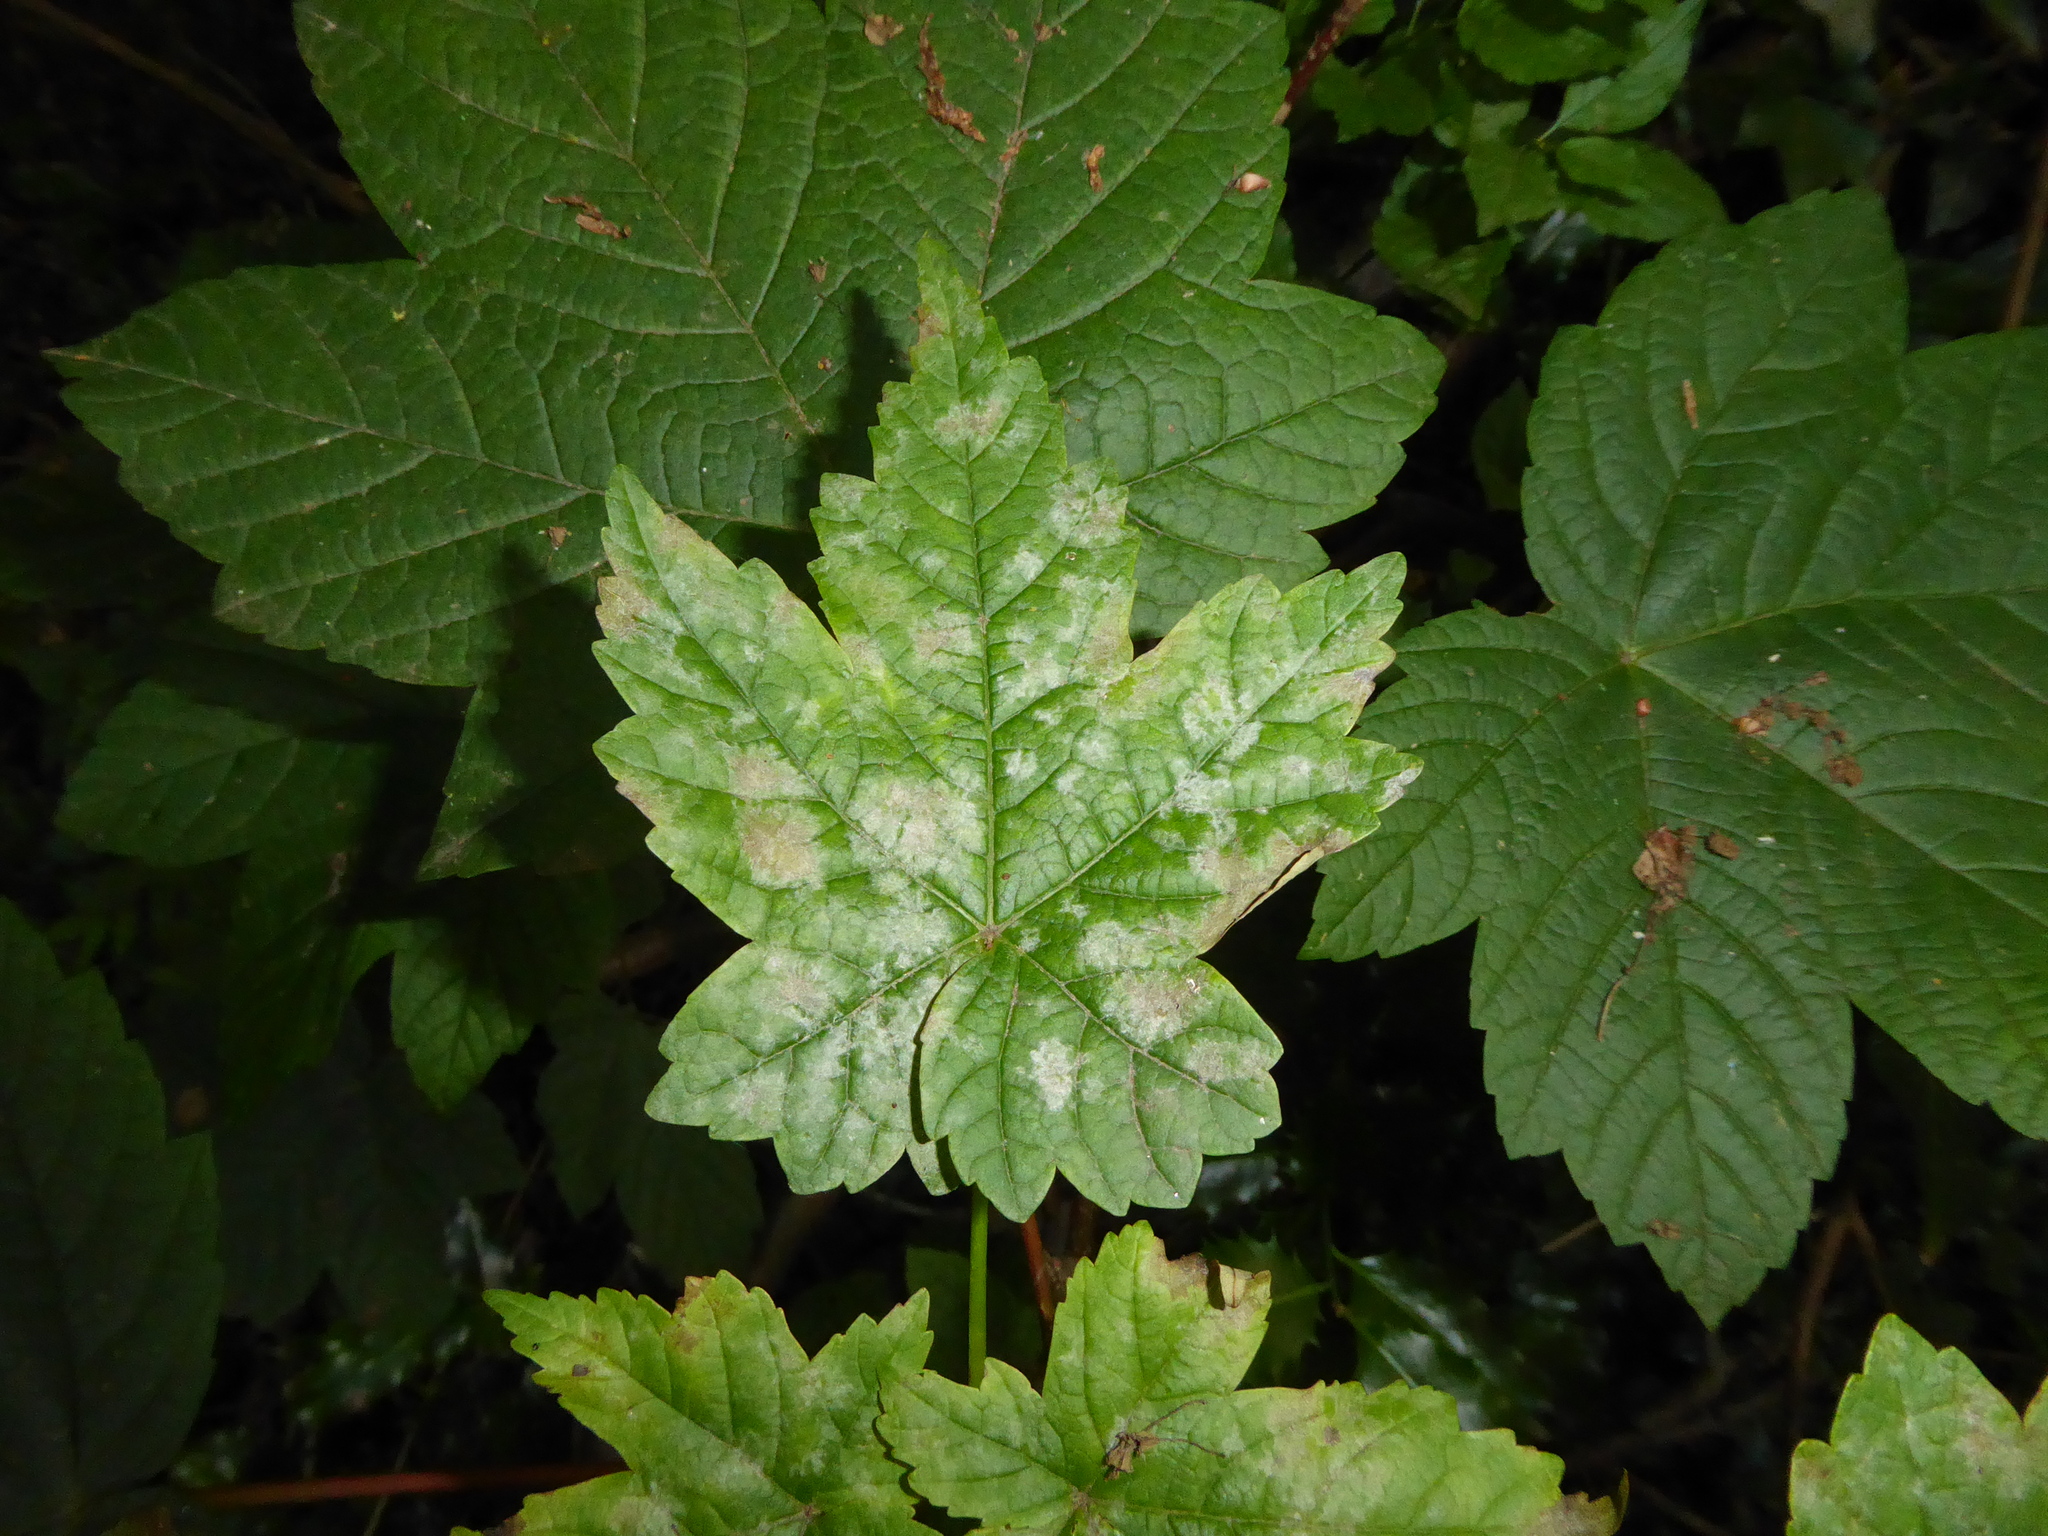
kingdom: Fungi
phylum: Ascomycota
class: Leotiomycetes
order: Helotiales
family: Erysiphaceae
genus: Sawadaea
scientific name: Sawadaea bicornis
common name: Maple mildew
